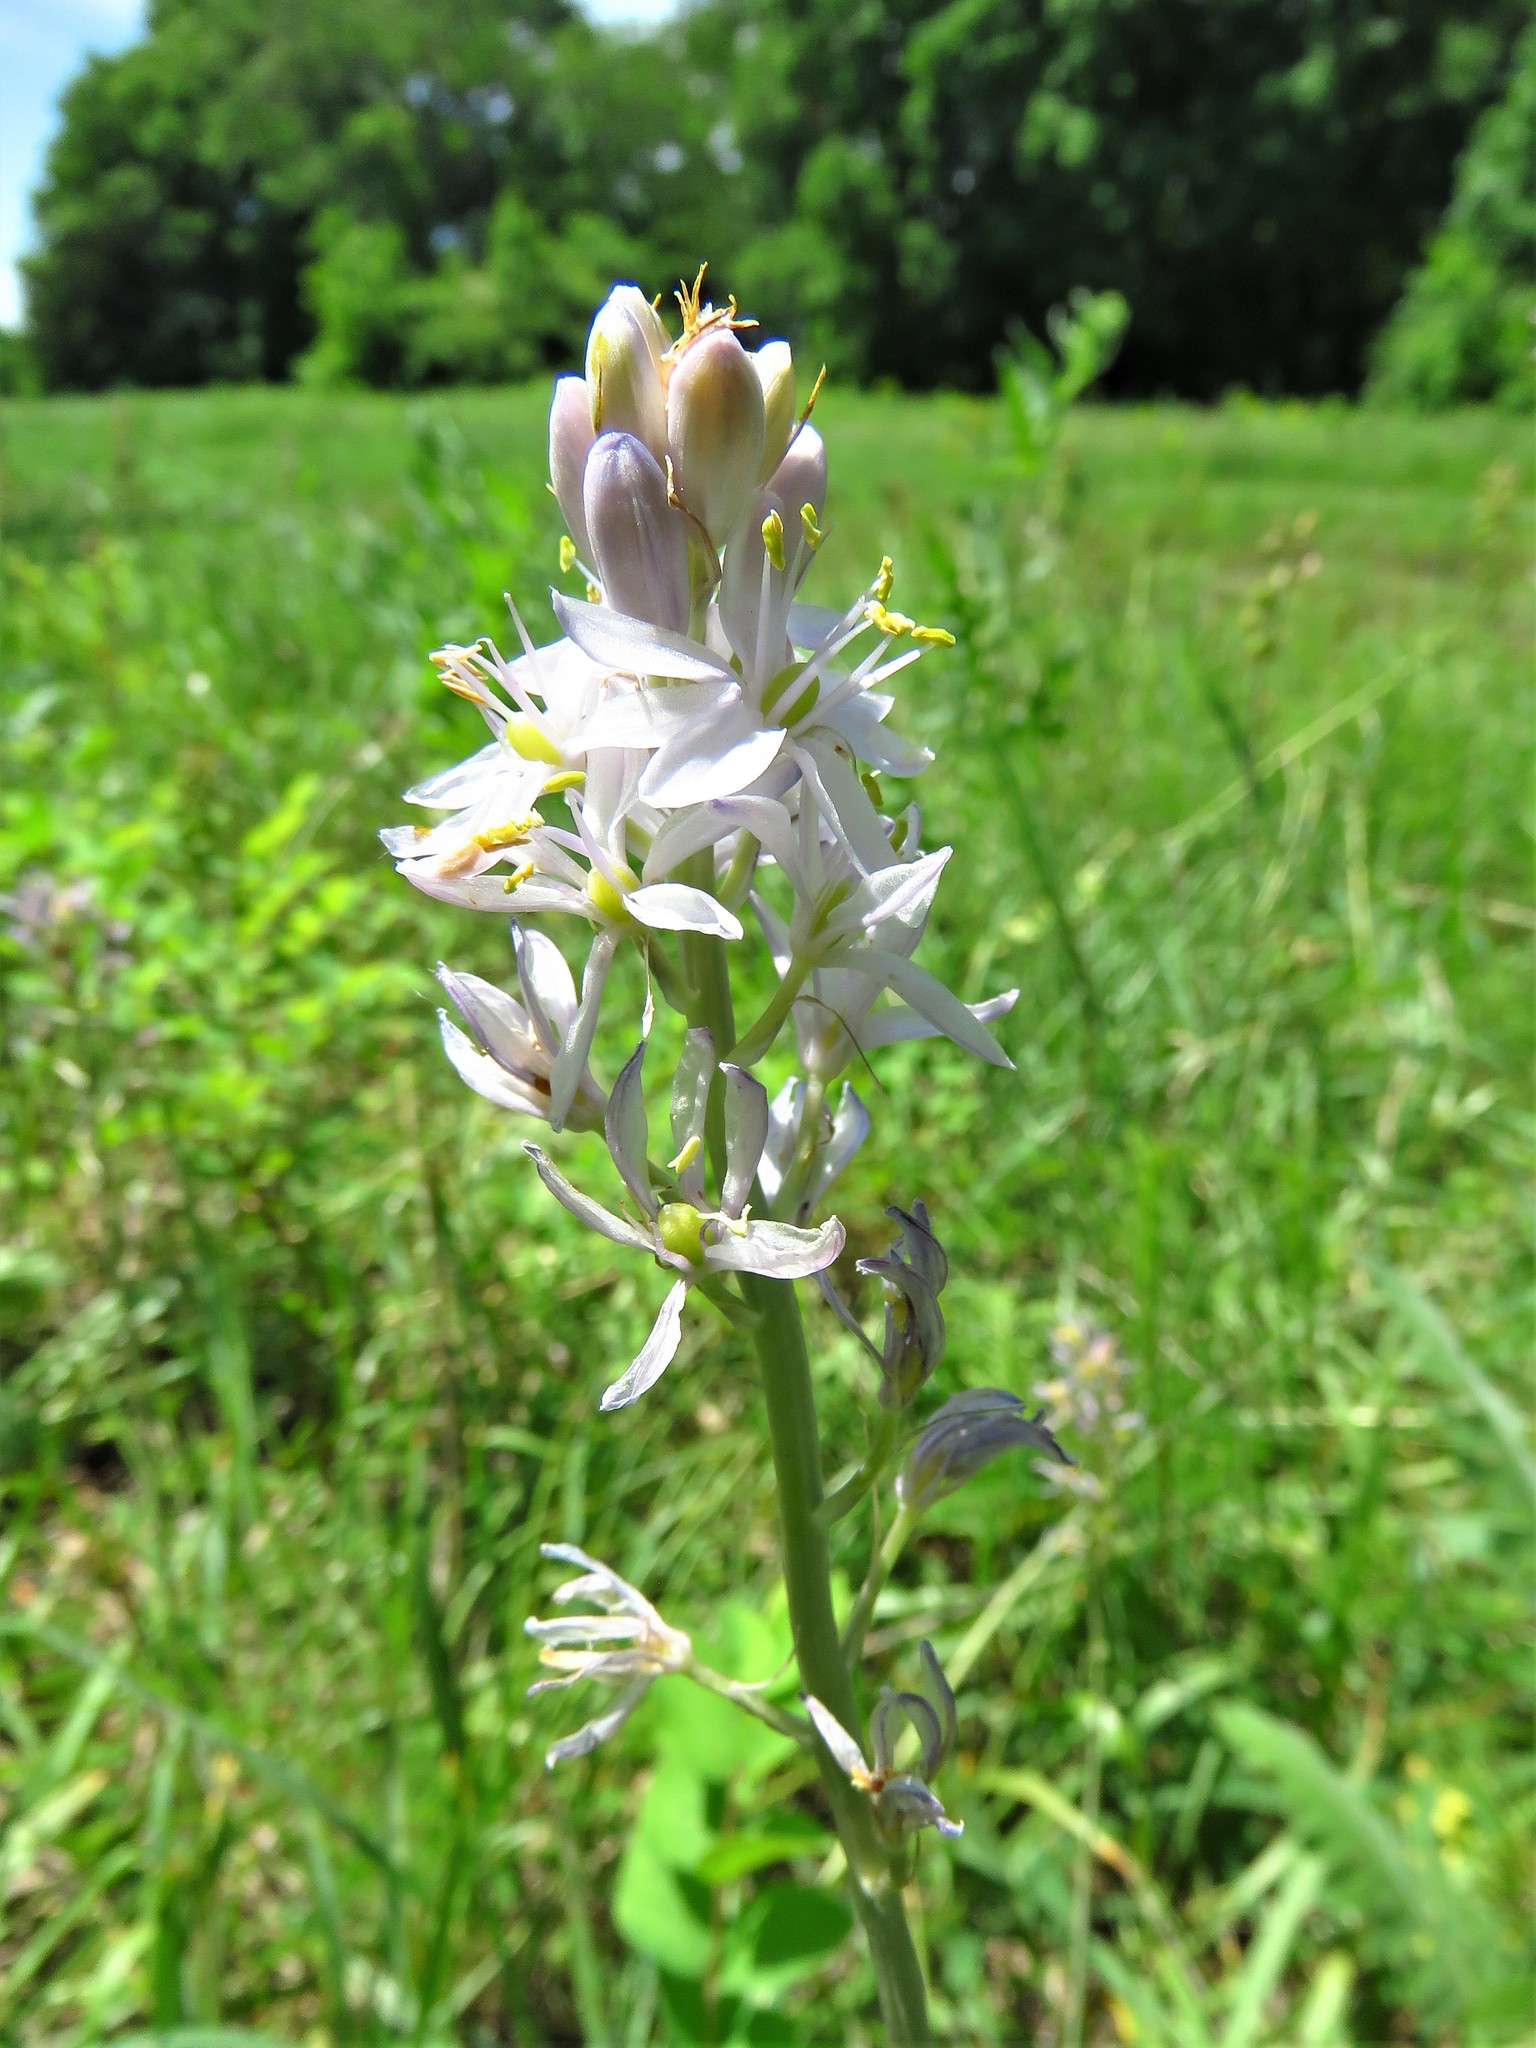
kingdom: Plantae
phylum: Tracheophyta
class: Liliopsida
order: Asparagales
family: Asparagaceae
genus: Camassia
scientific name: Camassia scilloides
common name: Wild hyacinth
